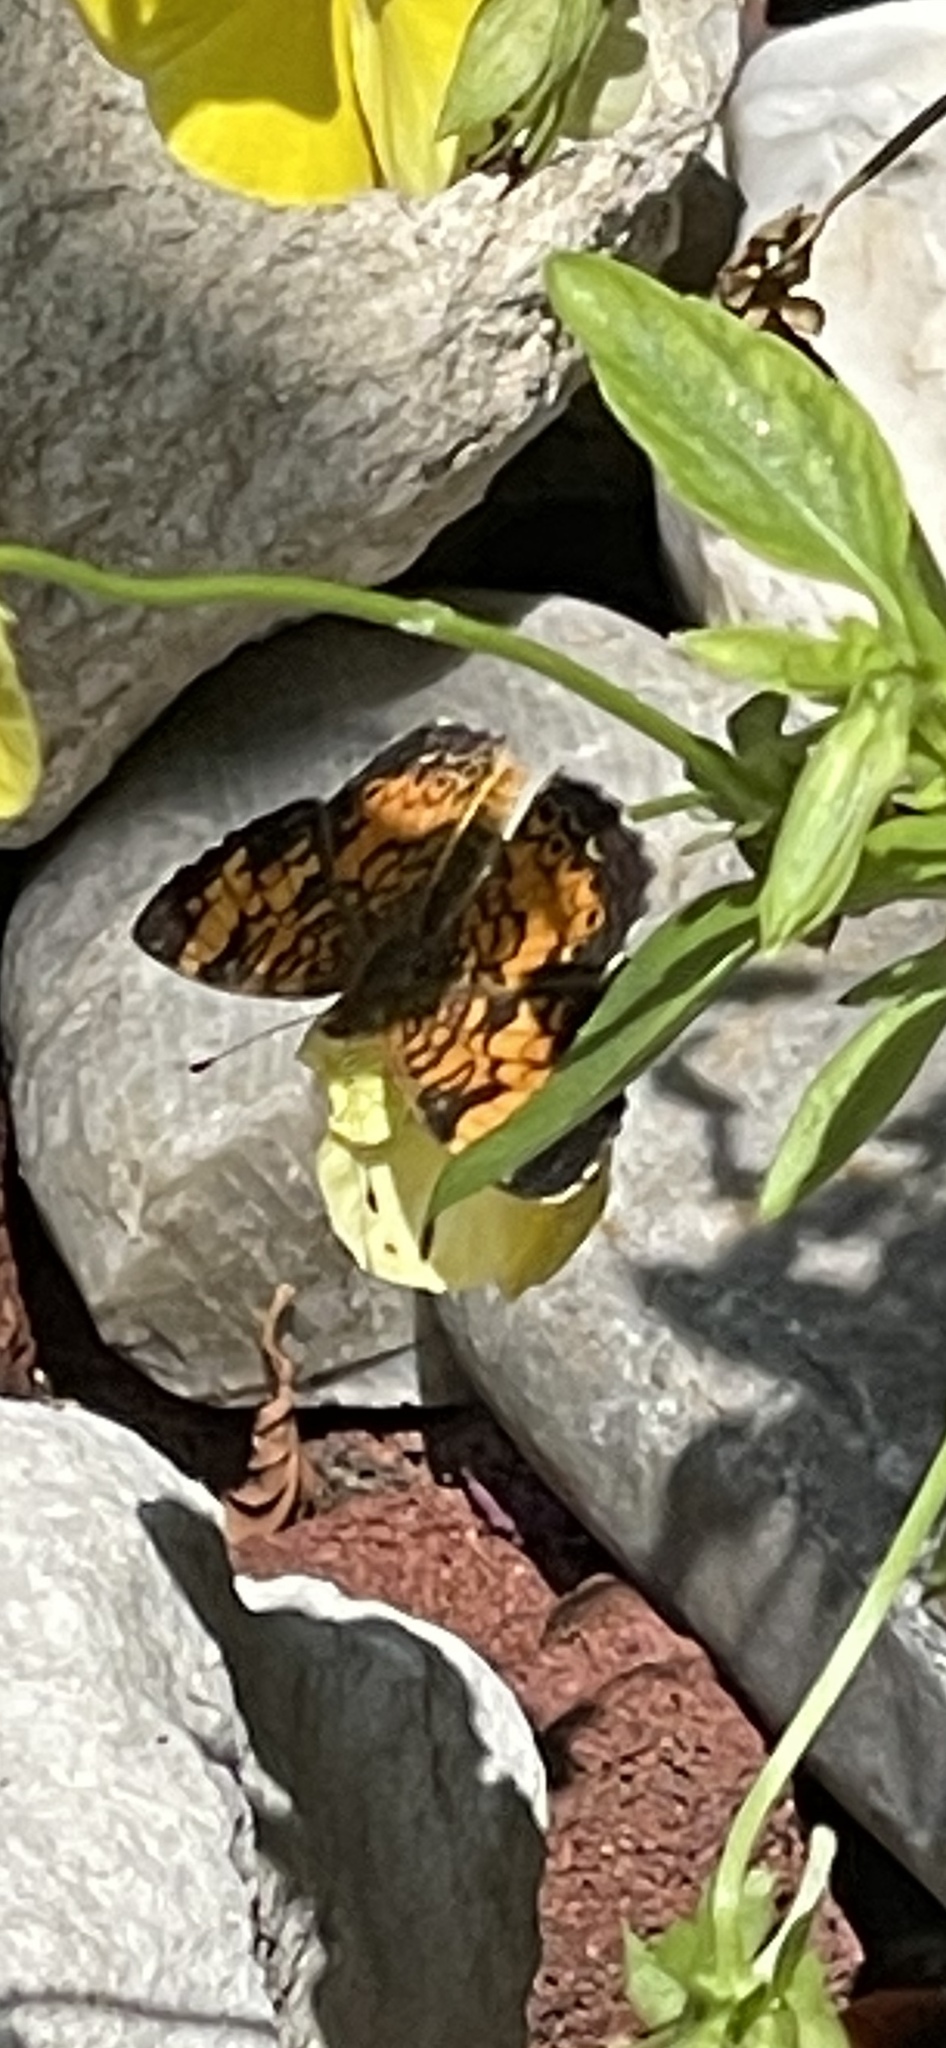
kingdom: Animalia
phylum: Arthropoda
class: Insecta
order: Lepidoptera
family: Nymphalidae
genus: Chlosyne
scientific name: Chlosyne nycteis
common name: Silvery checkerspot
